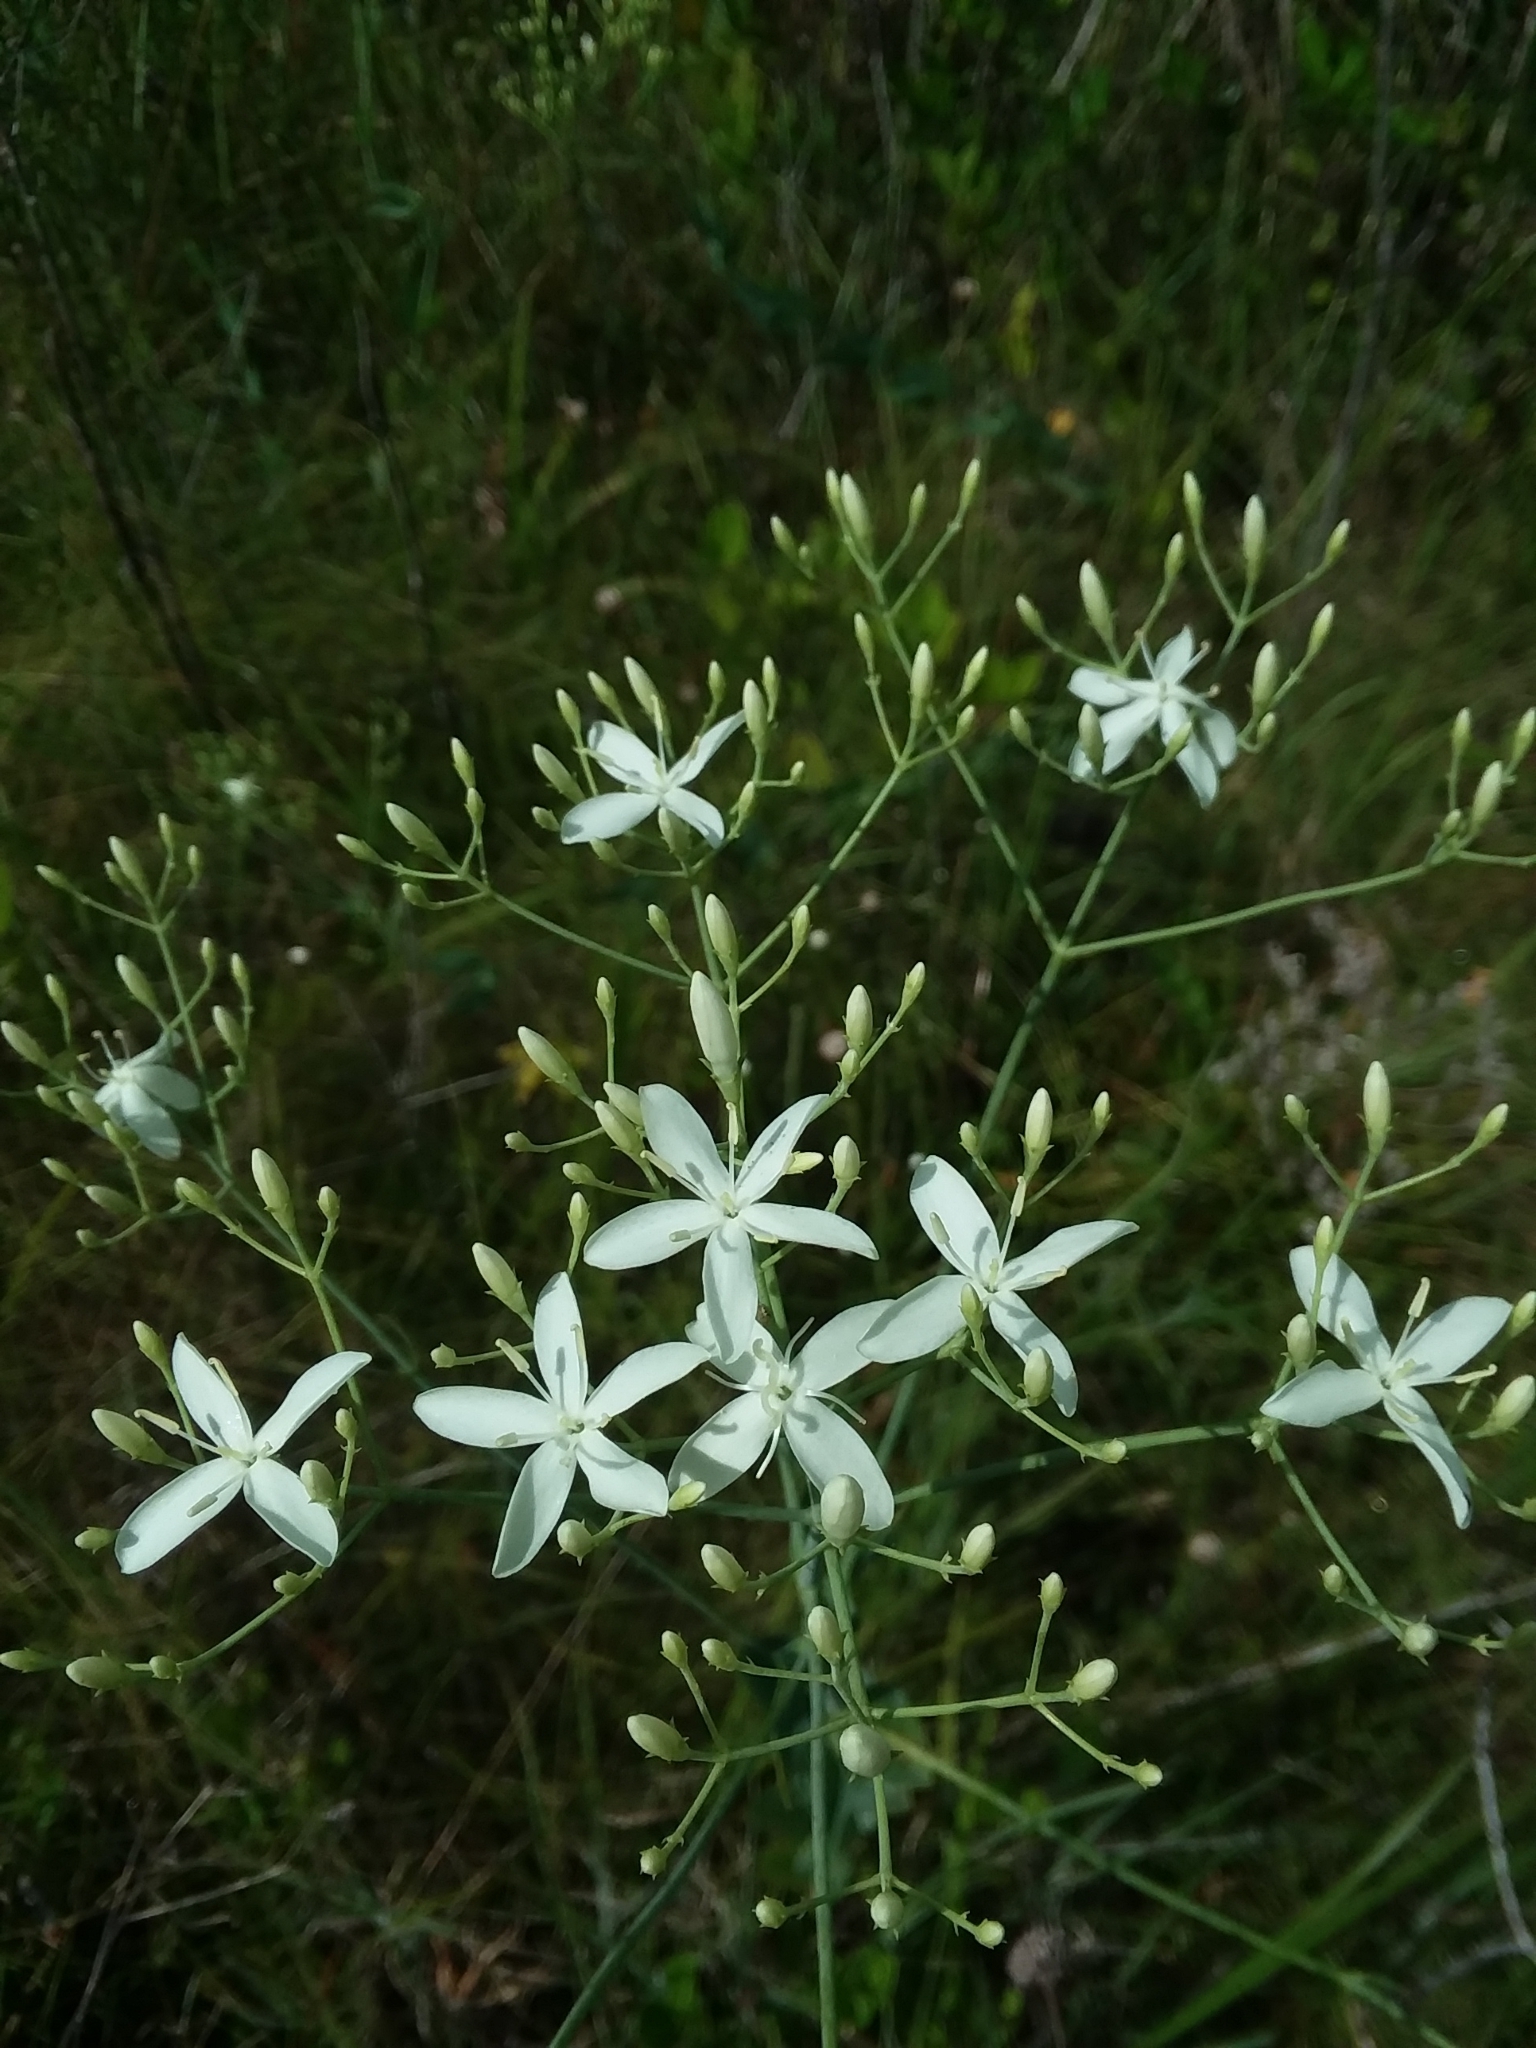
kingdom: Plantae
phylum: Tracheophyta
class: Magnoliopsida
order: Gentianales
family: Gentianaceae
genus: Sabatia
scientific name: Sabatia macrophylla
